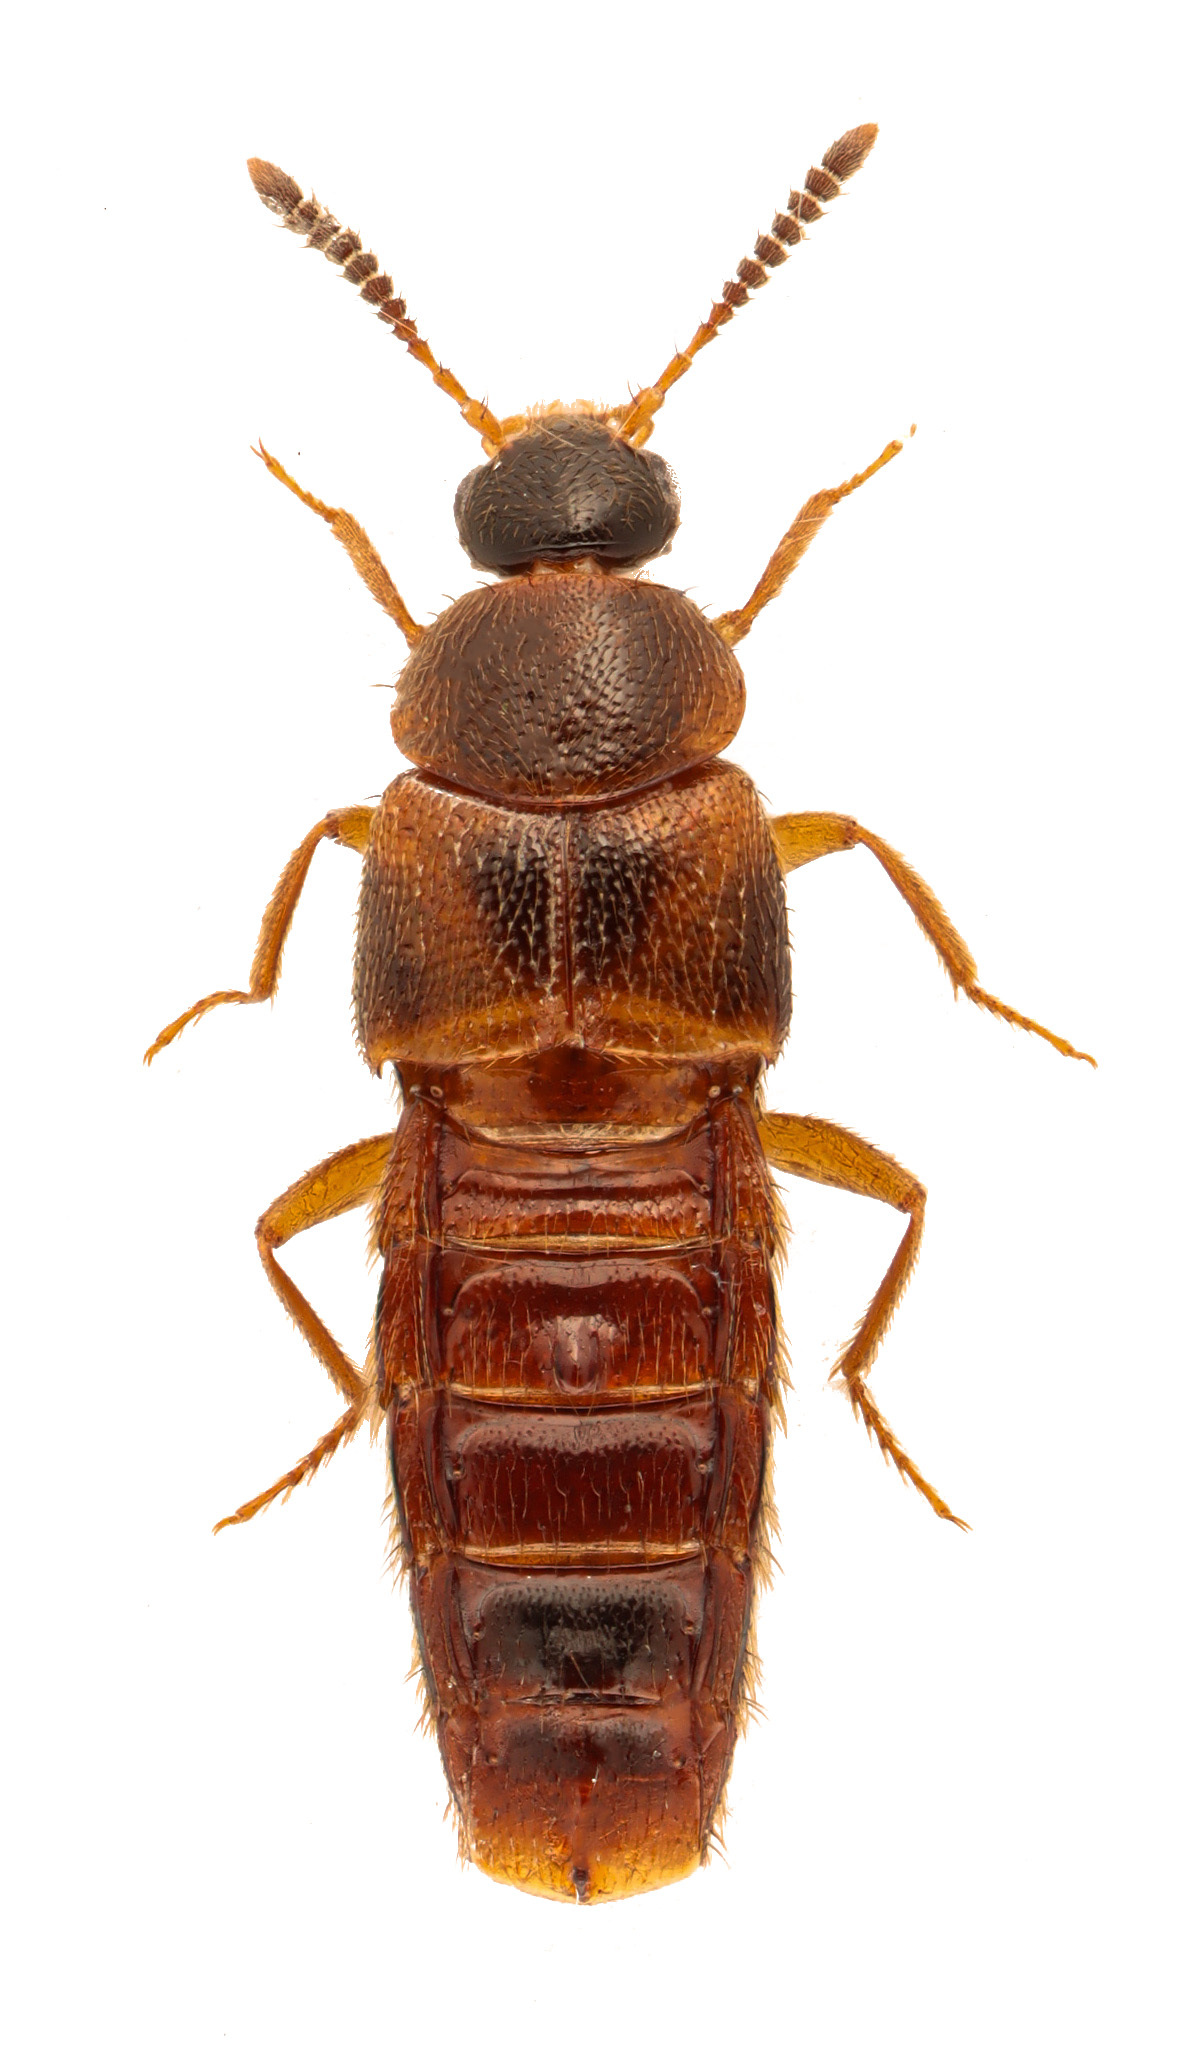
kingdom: Animalia
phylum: Arthropoda
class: Insecta
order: Coleoptera
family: Staphylinidae
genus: Hoplandria
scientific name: Hoplandria lateralis
